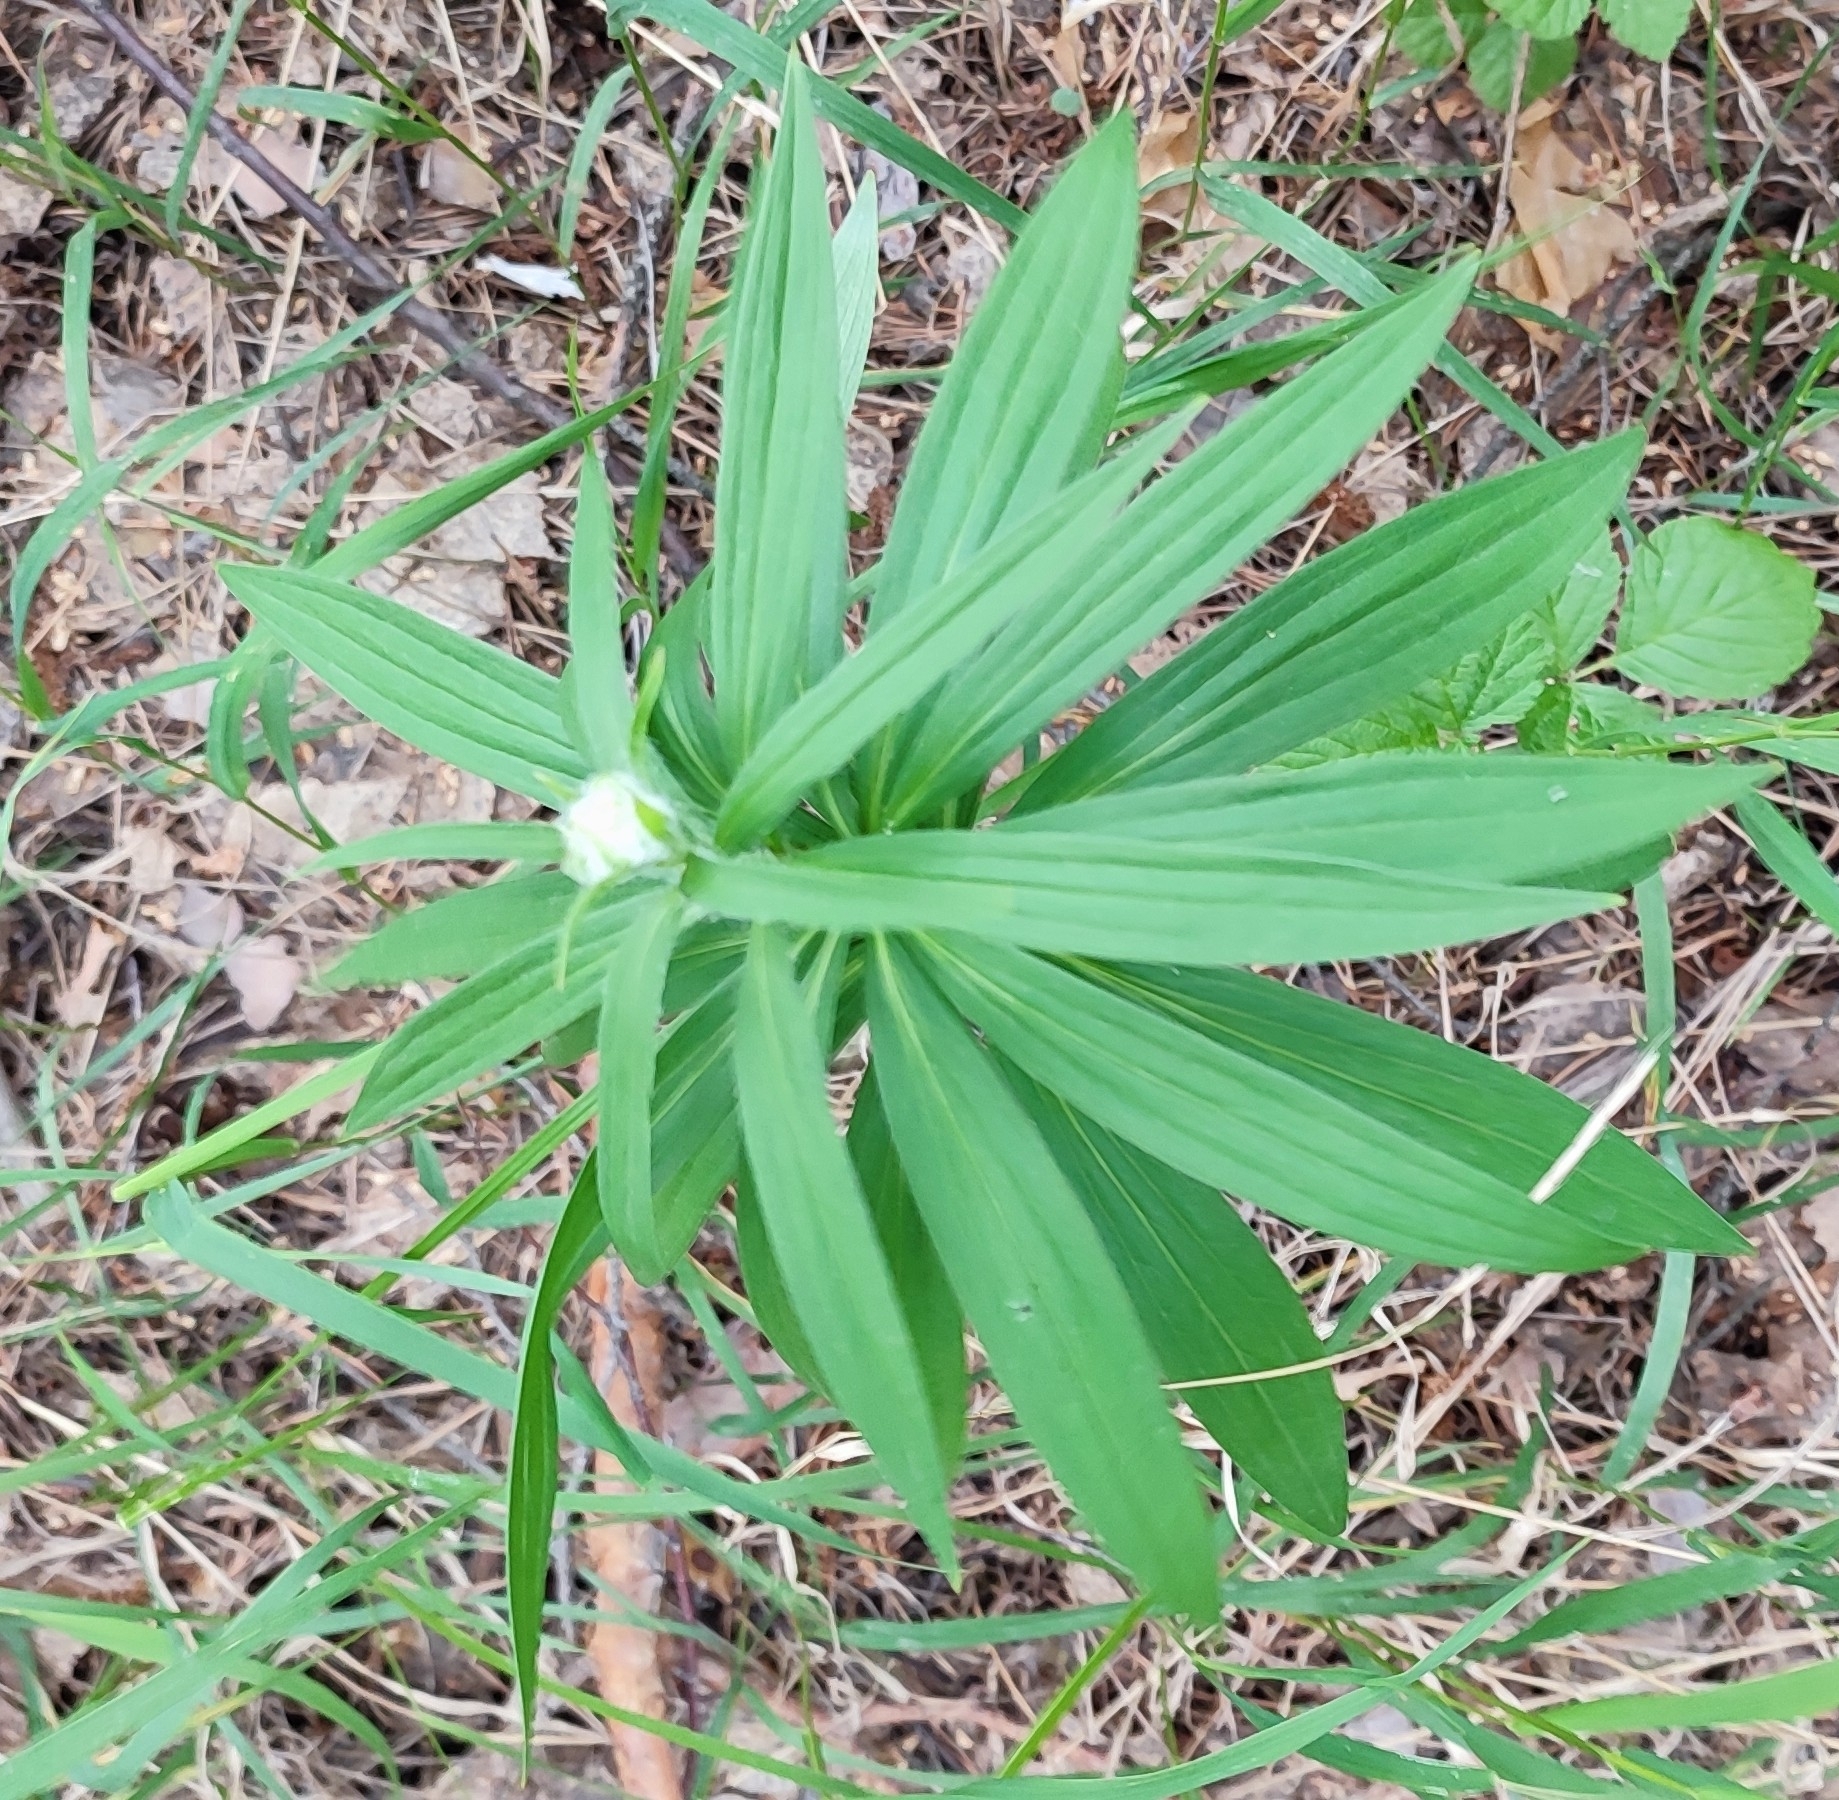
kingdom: Plantae
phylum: Tracheophyta
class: Liliopsida
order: Liliales
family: Liliaceae
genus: Lilium
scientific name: Lilium martagon
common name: Martagon lily
